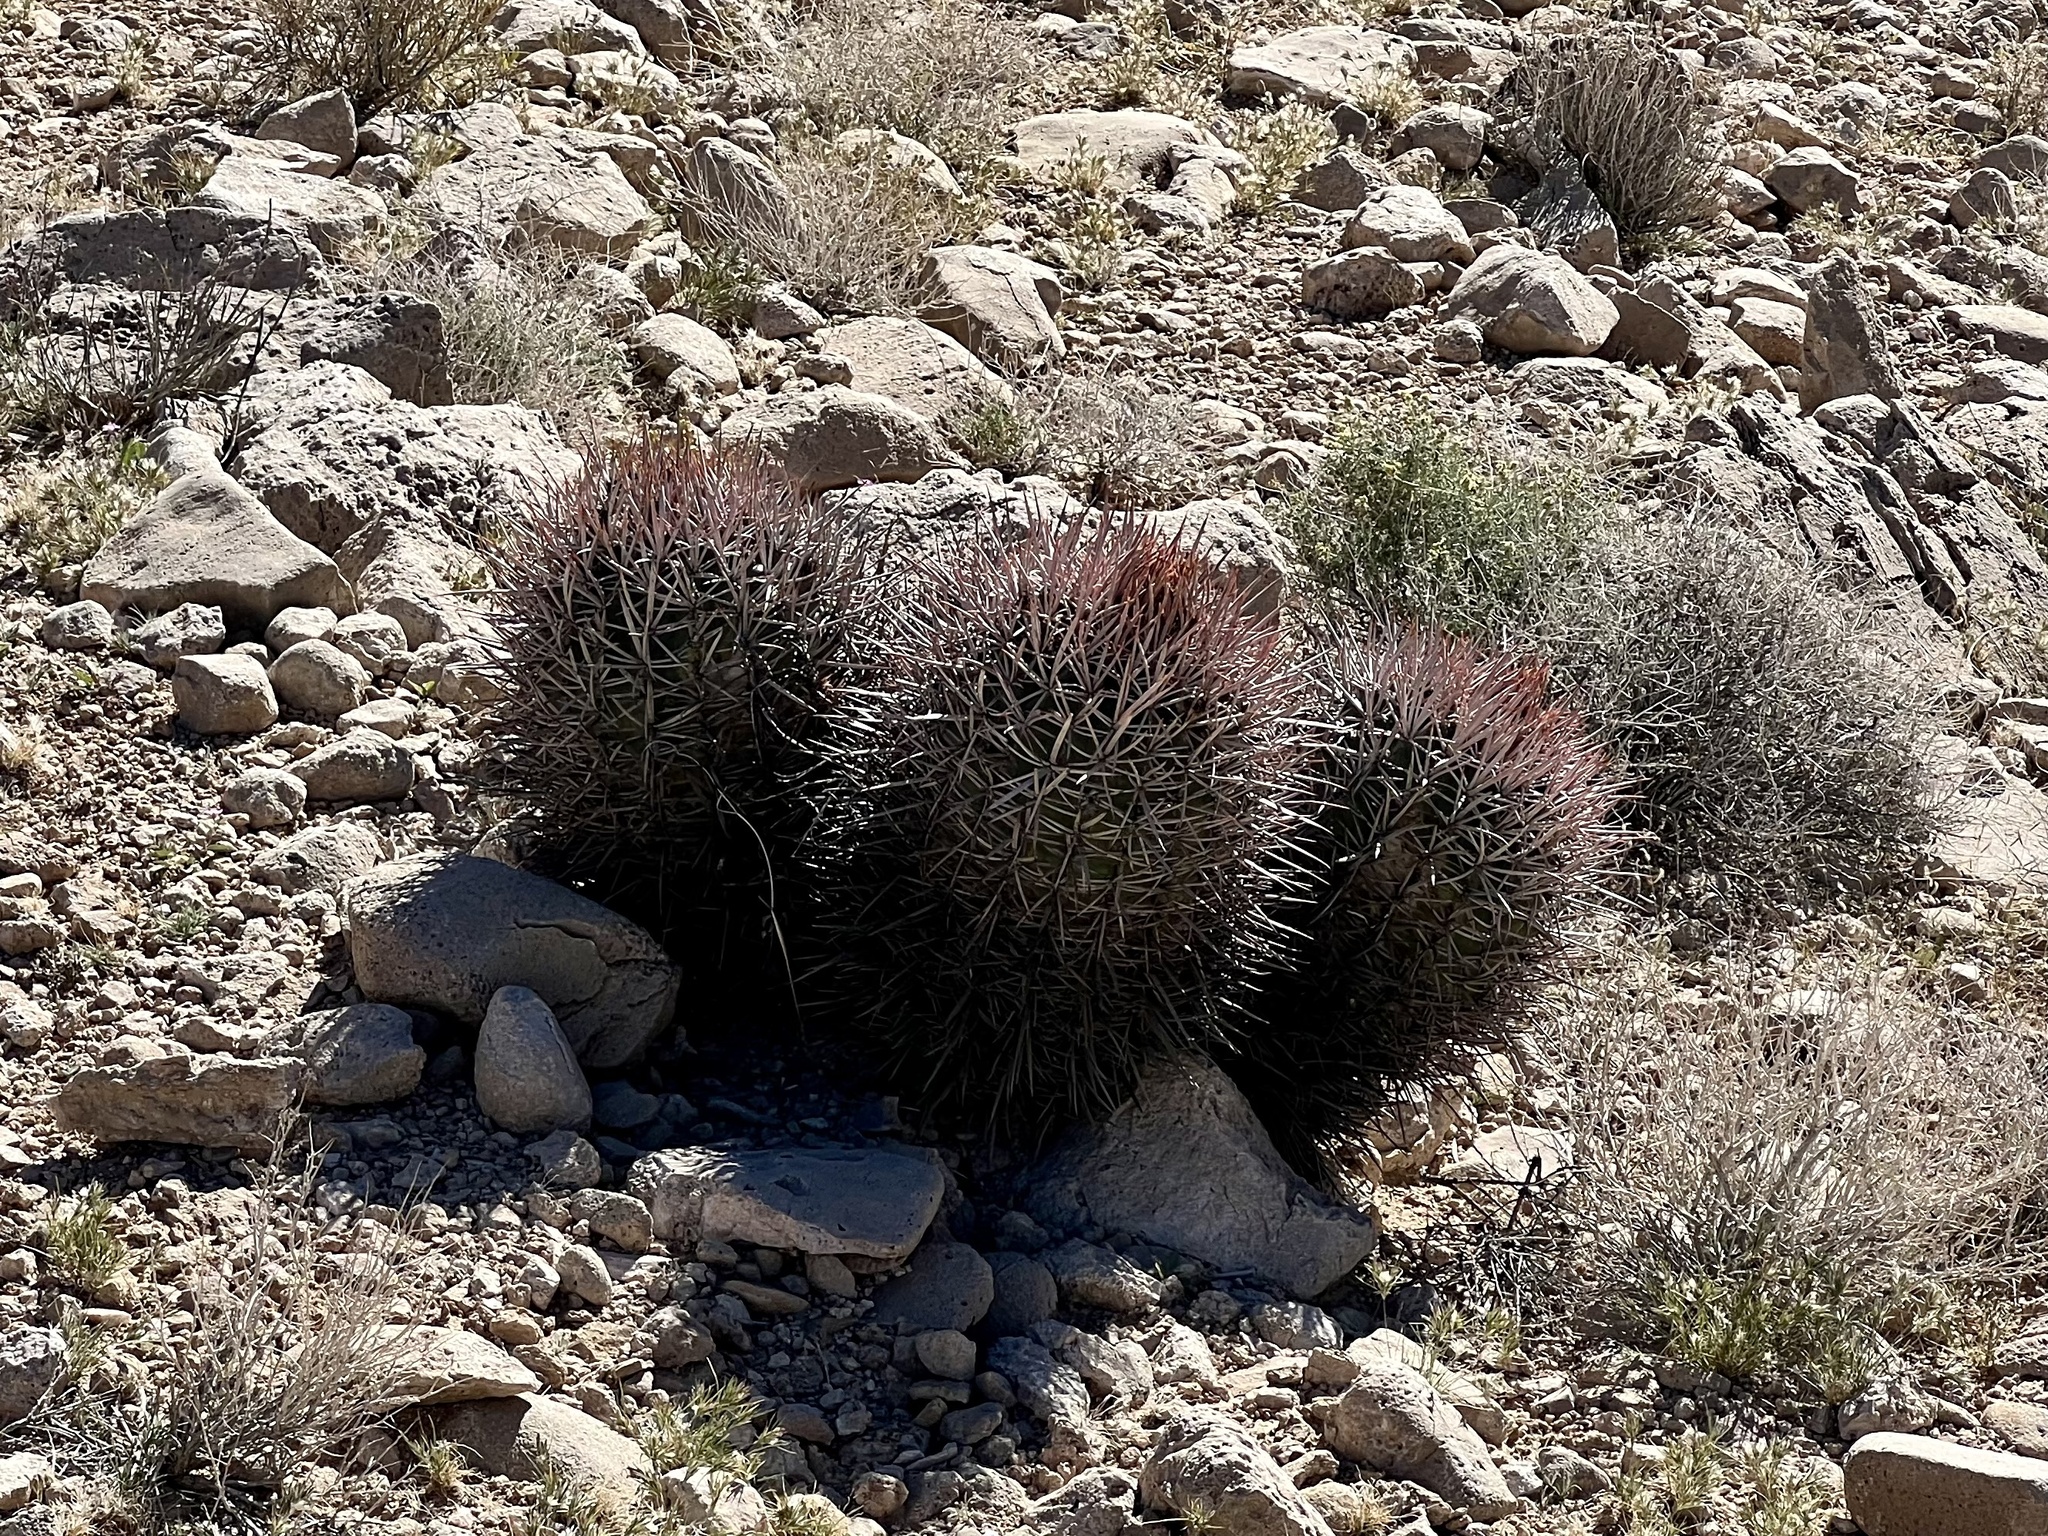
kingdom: Plantae
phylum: Tracheophyta
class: Magnoliopsida
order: Caryophyllales
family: Cactaceae
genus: Echinocactus
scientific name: Echinocactus polycephalus
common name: Cottontop cactus
